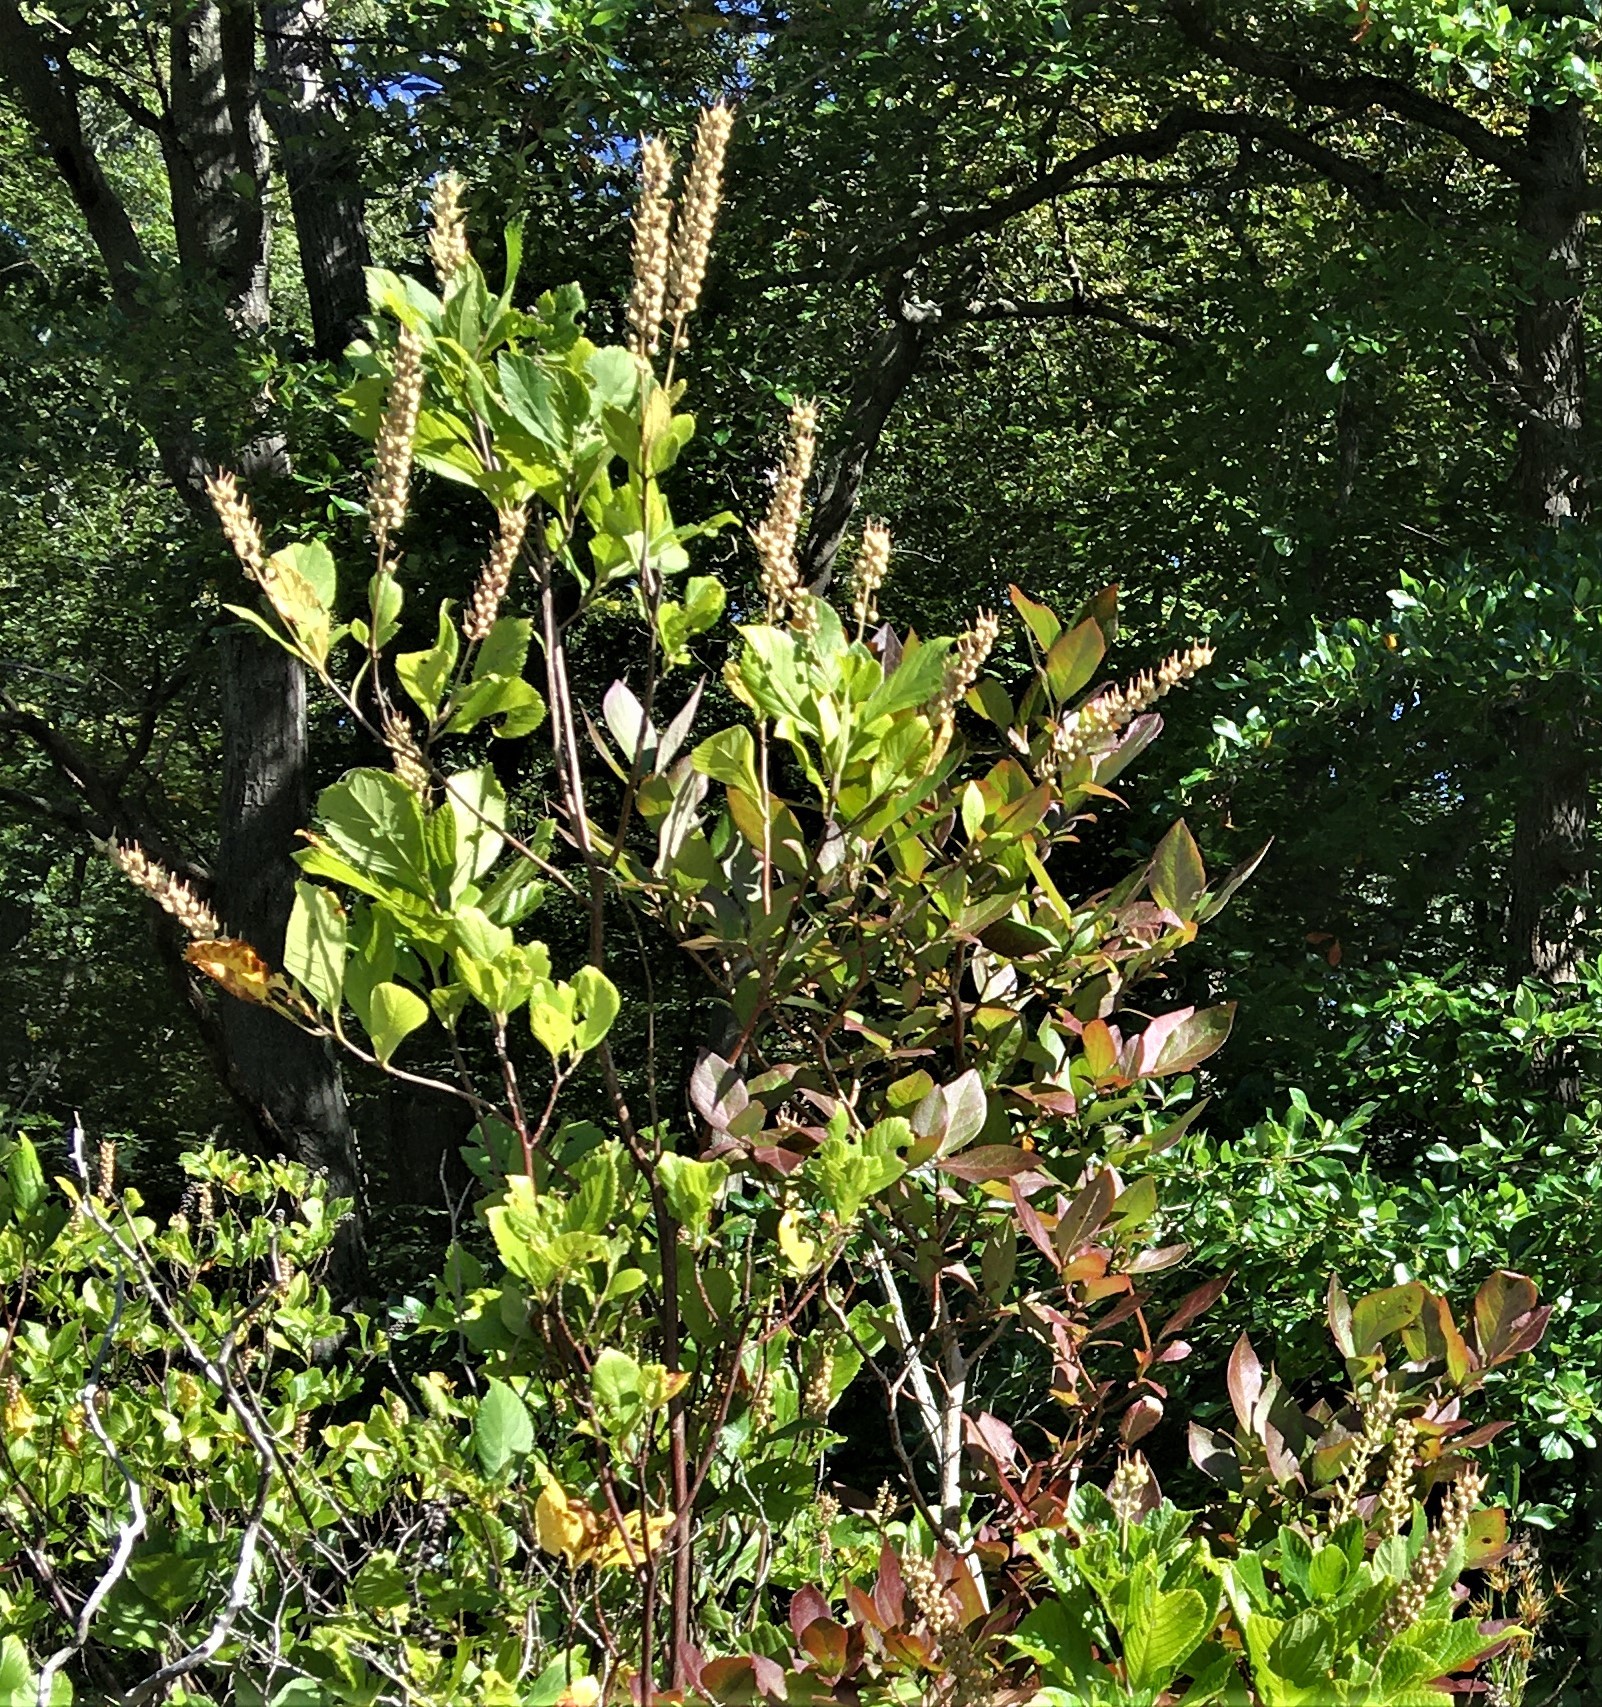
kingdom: Plantae
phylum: Tracheophyta
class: Magnoliopsida
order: Ericales
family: Clethraceae
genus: Clethra
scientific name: Clethra alnifolia
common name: Sweet pepperbush
